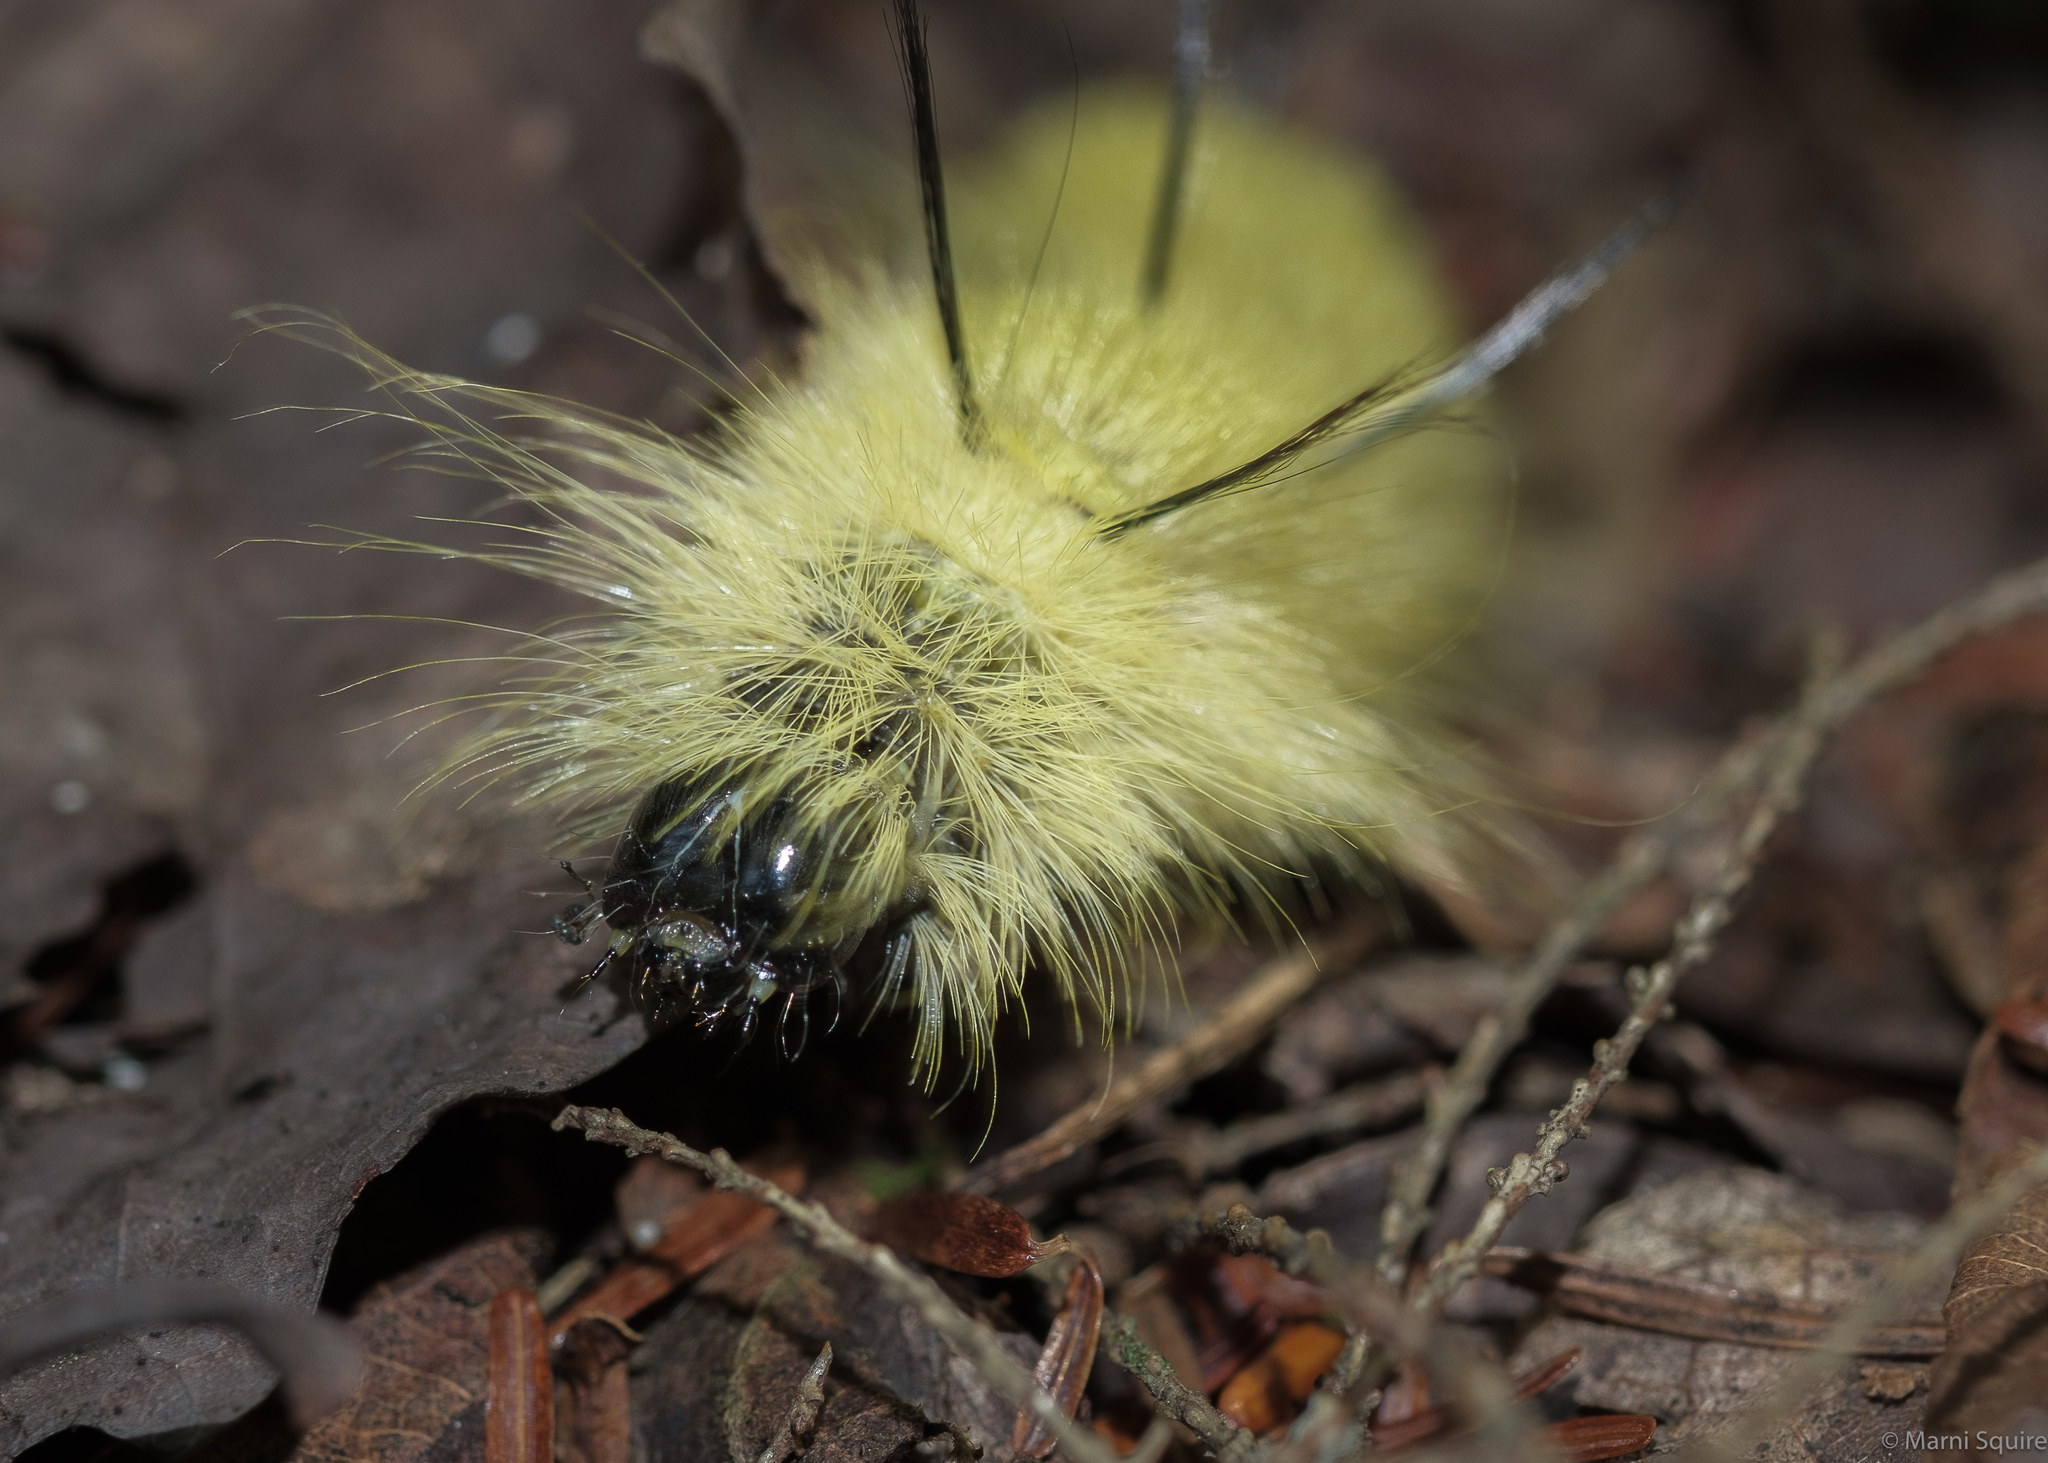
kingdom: Animalia
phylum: Arthropoda
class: Insecta
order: Lepidoptera
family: Noctuidae
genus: Acronicta
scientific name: Acronicta americana
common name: American dagger
